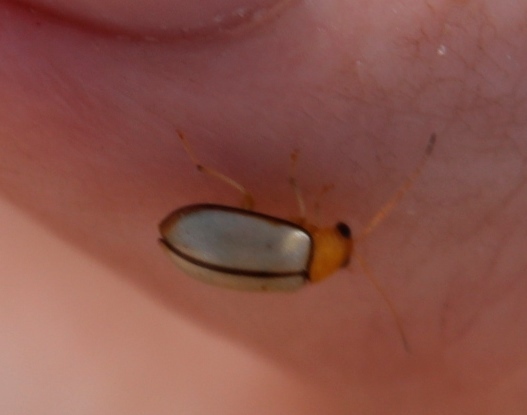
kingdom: Animalia
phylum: Arthropoda
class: Insecta
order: Coleoptera
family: Chrysomelidae
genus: Panafrolepta
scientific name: Panafrolepta
